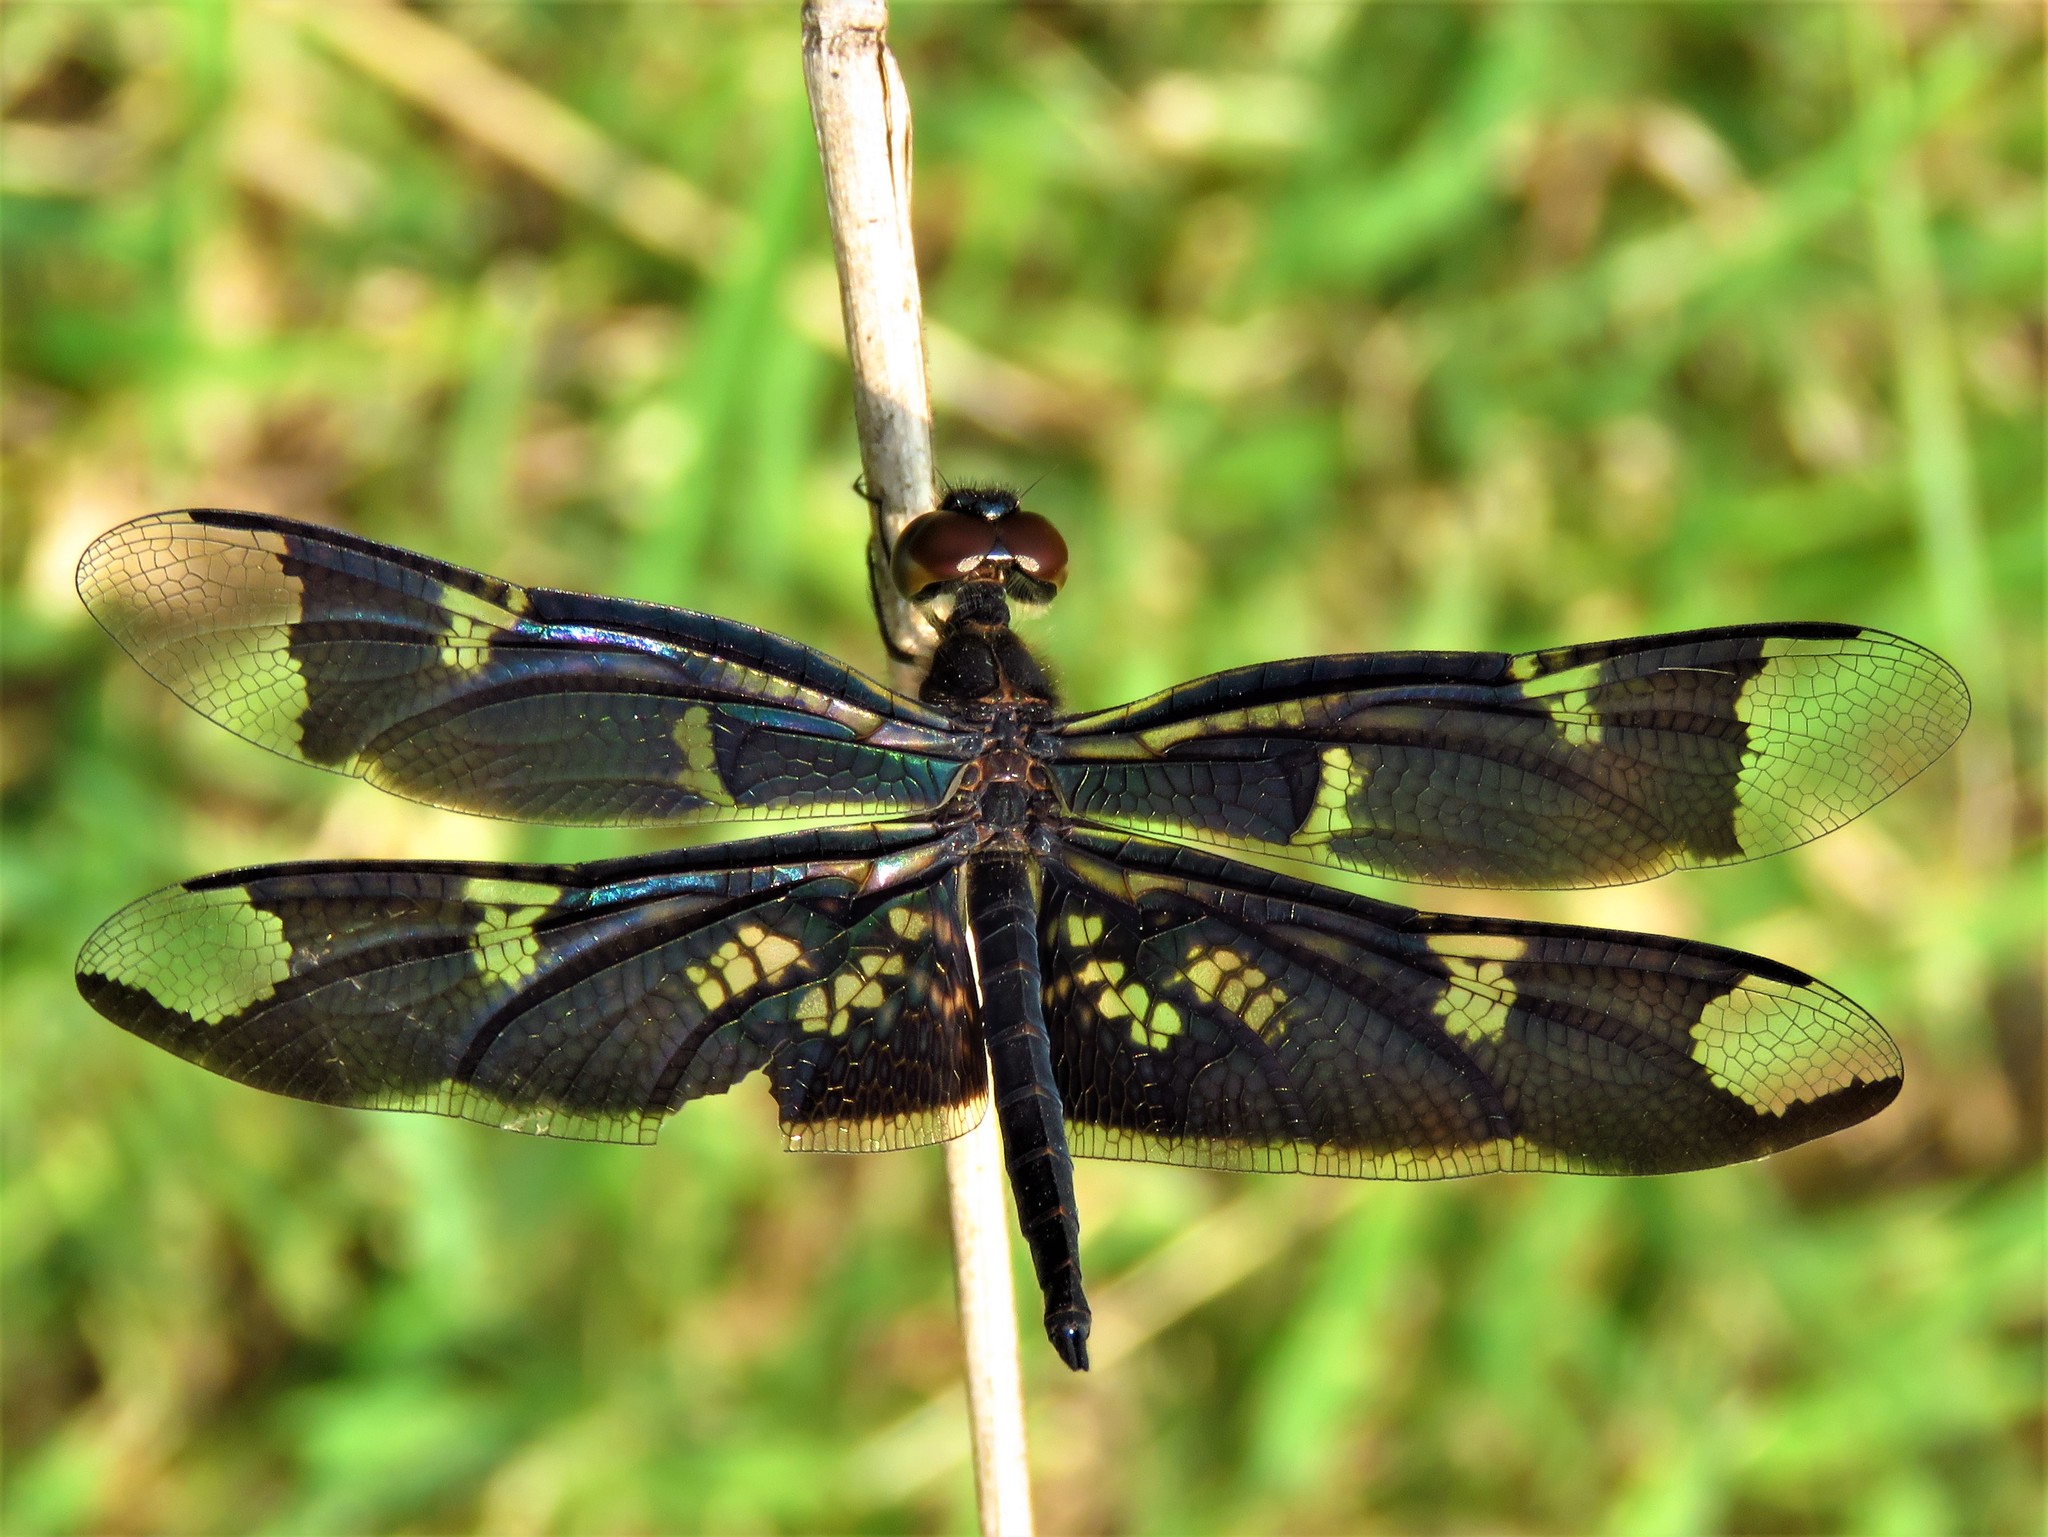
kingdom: Animalia
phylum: Arthropoda
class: Insecta
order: Odonata
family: Libellulidae
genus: Rhyothemis
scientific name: Rhyothemis fenestrina
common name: Skylight flutterer
